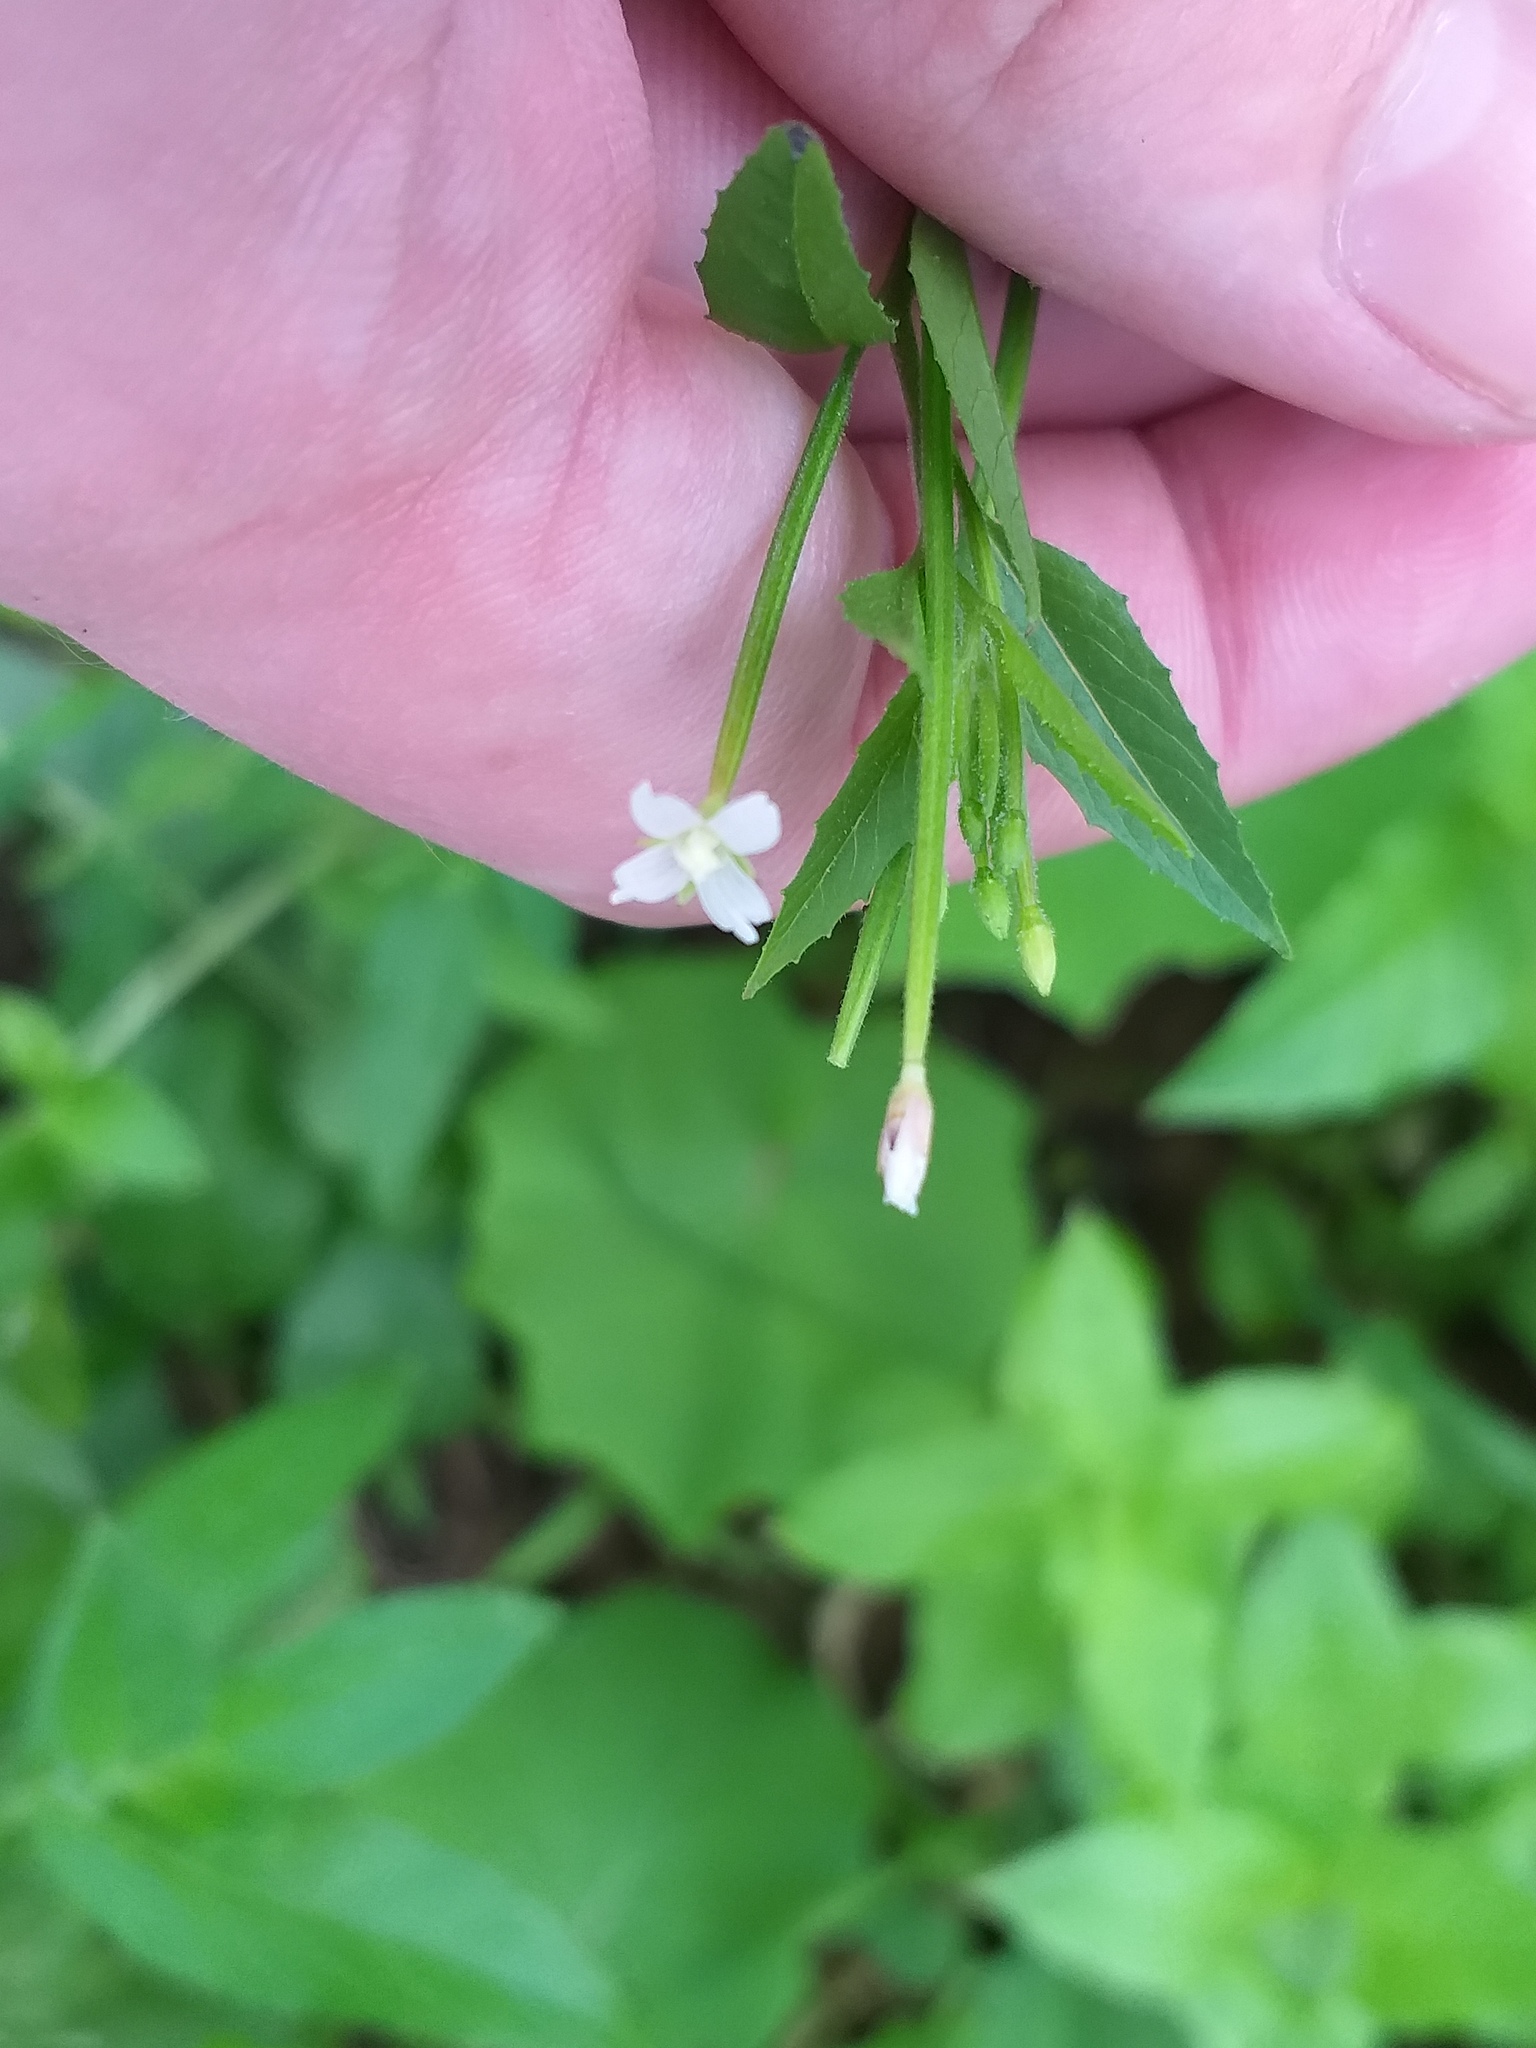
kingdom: Plantae
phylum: Tracheophyta
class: Magnoliopsida
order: Myrtales
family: Onagraceae
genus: Epilobium
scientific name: Epilobium pseudorubescens
